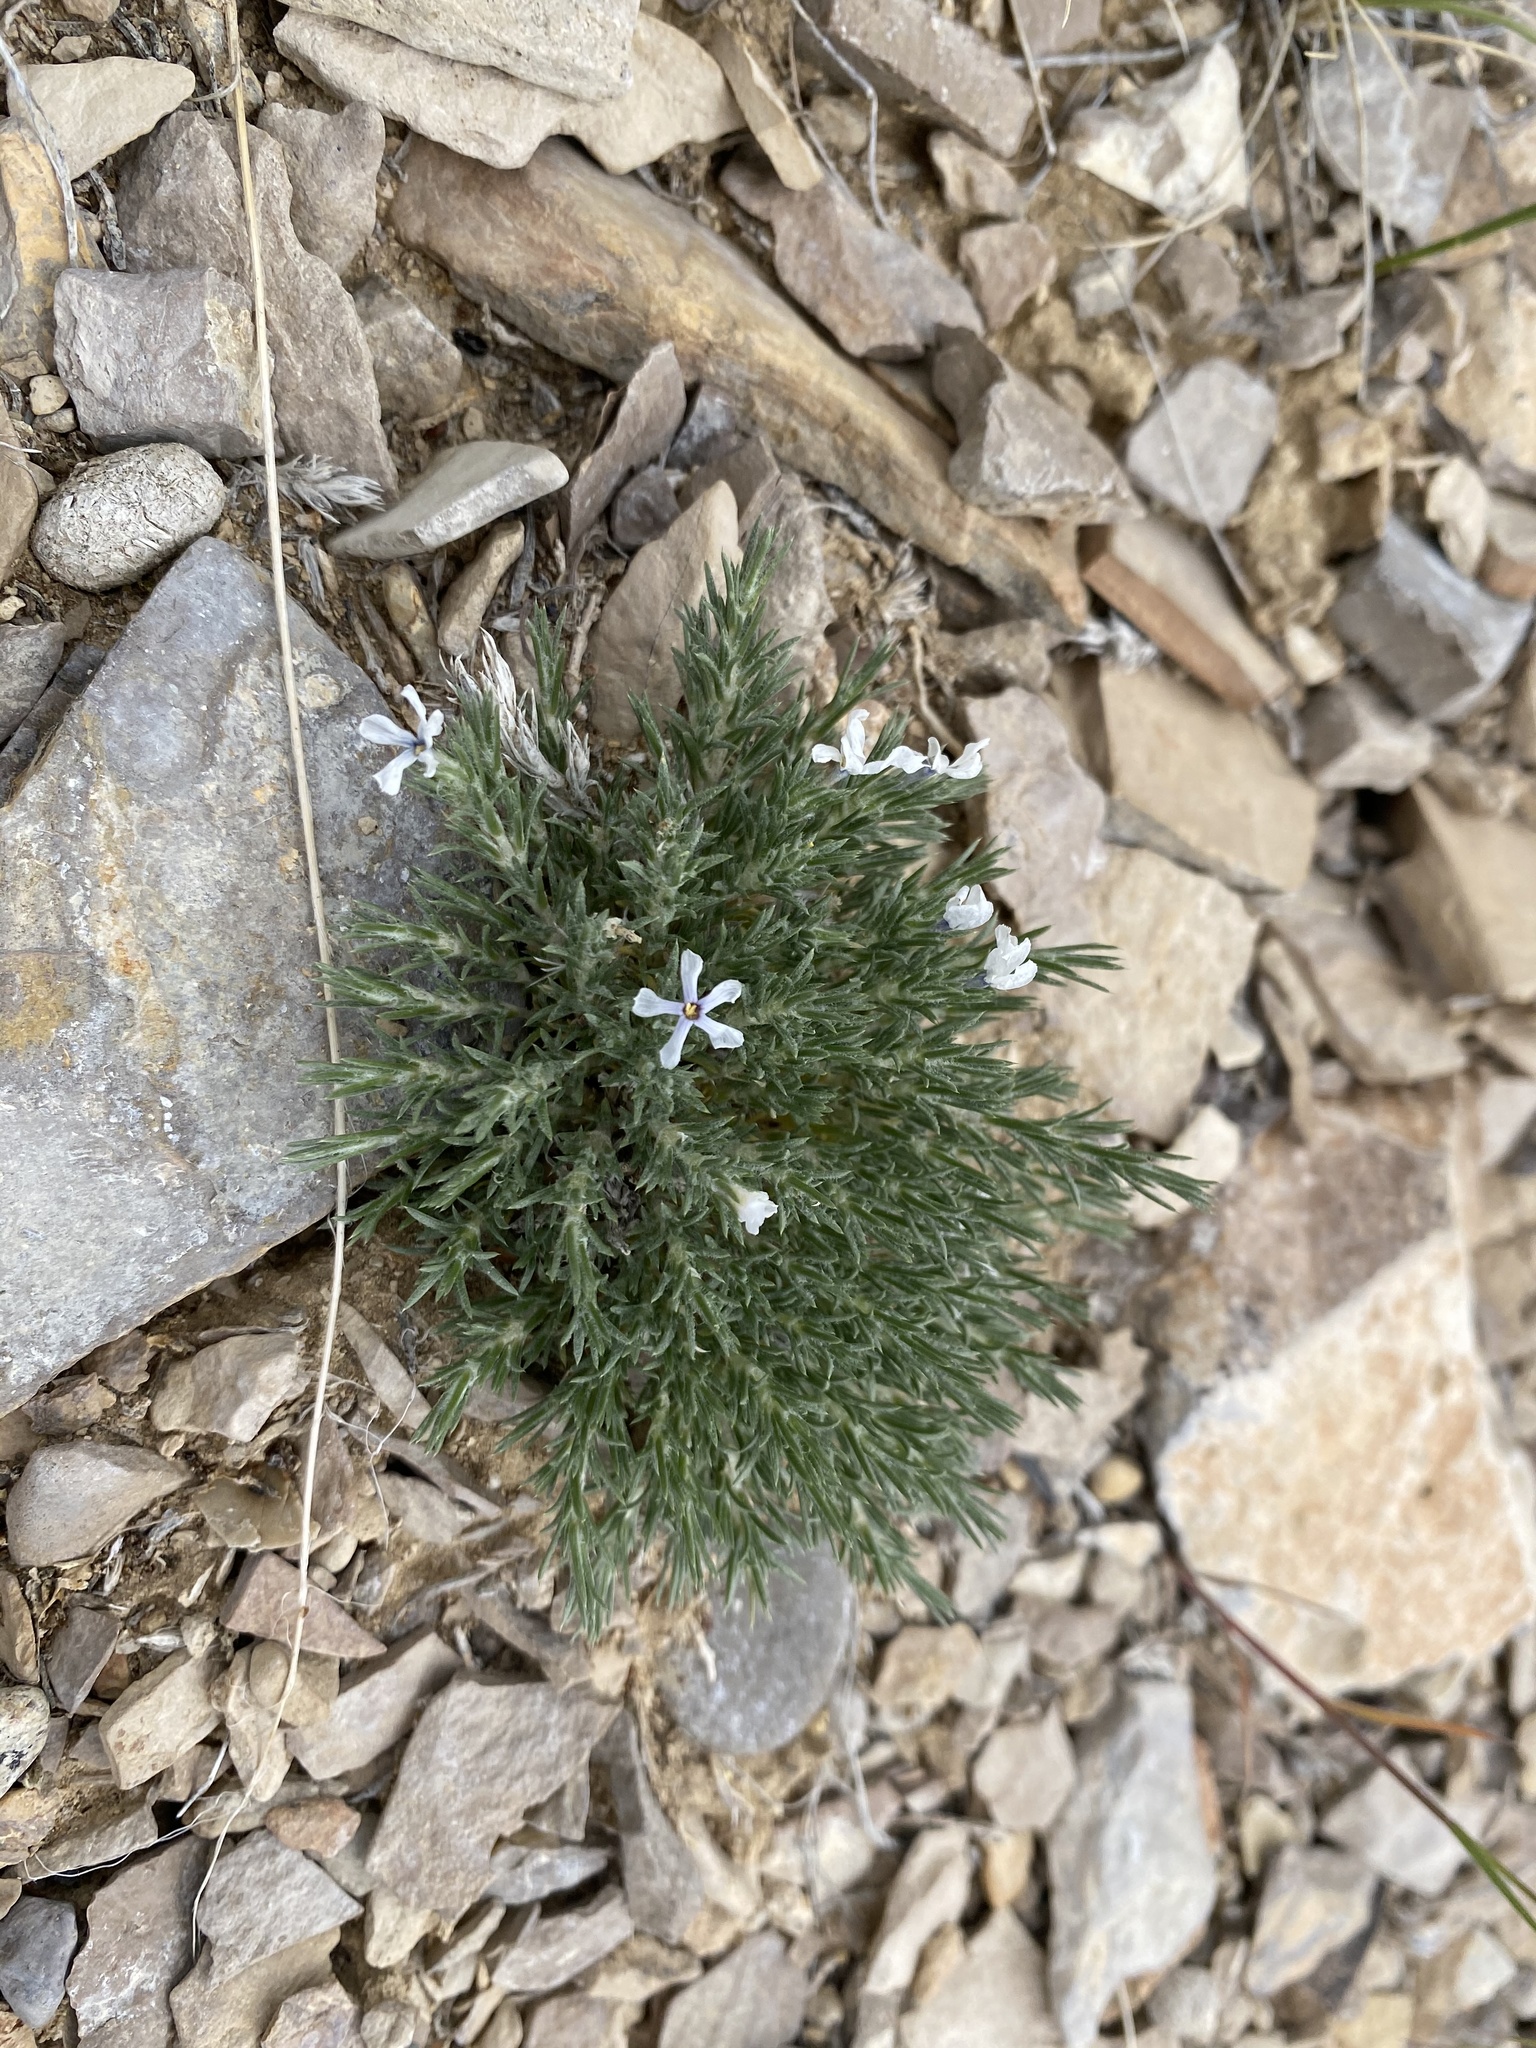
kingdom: Plantae
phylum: Tracheophyta
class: Magnoliopsida
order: Ericales
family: Polemoniaceae
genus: Phlox
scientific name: Phlox hoodii
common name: Moss phlox
